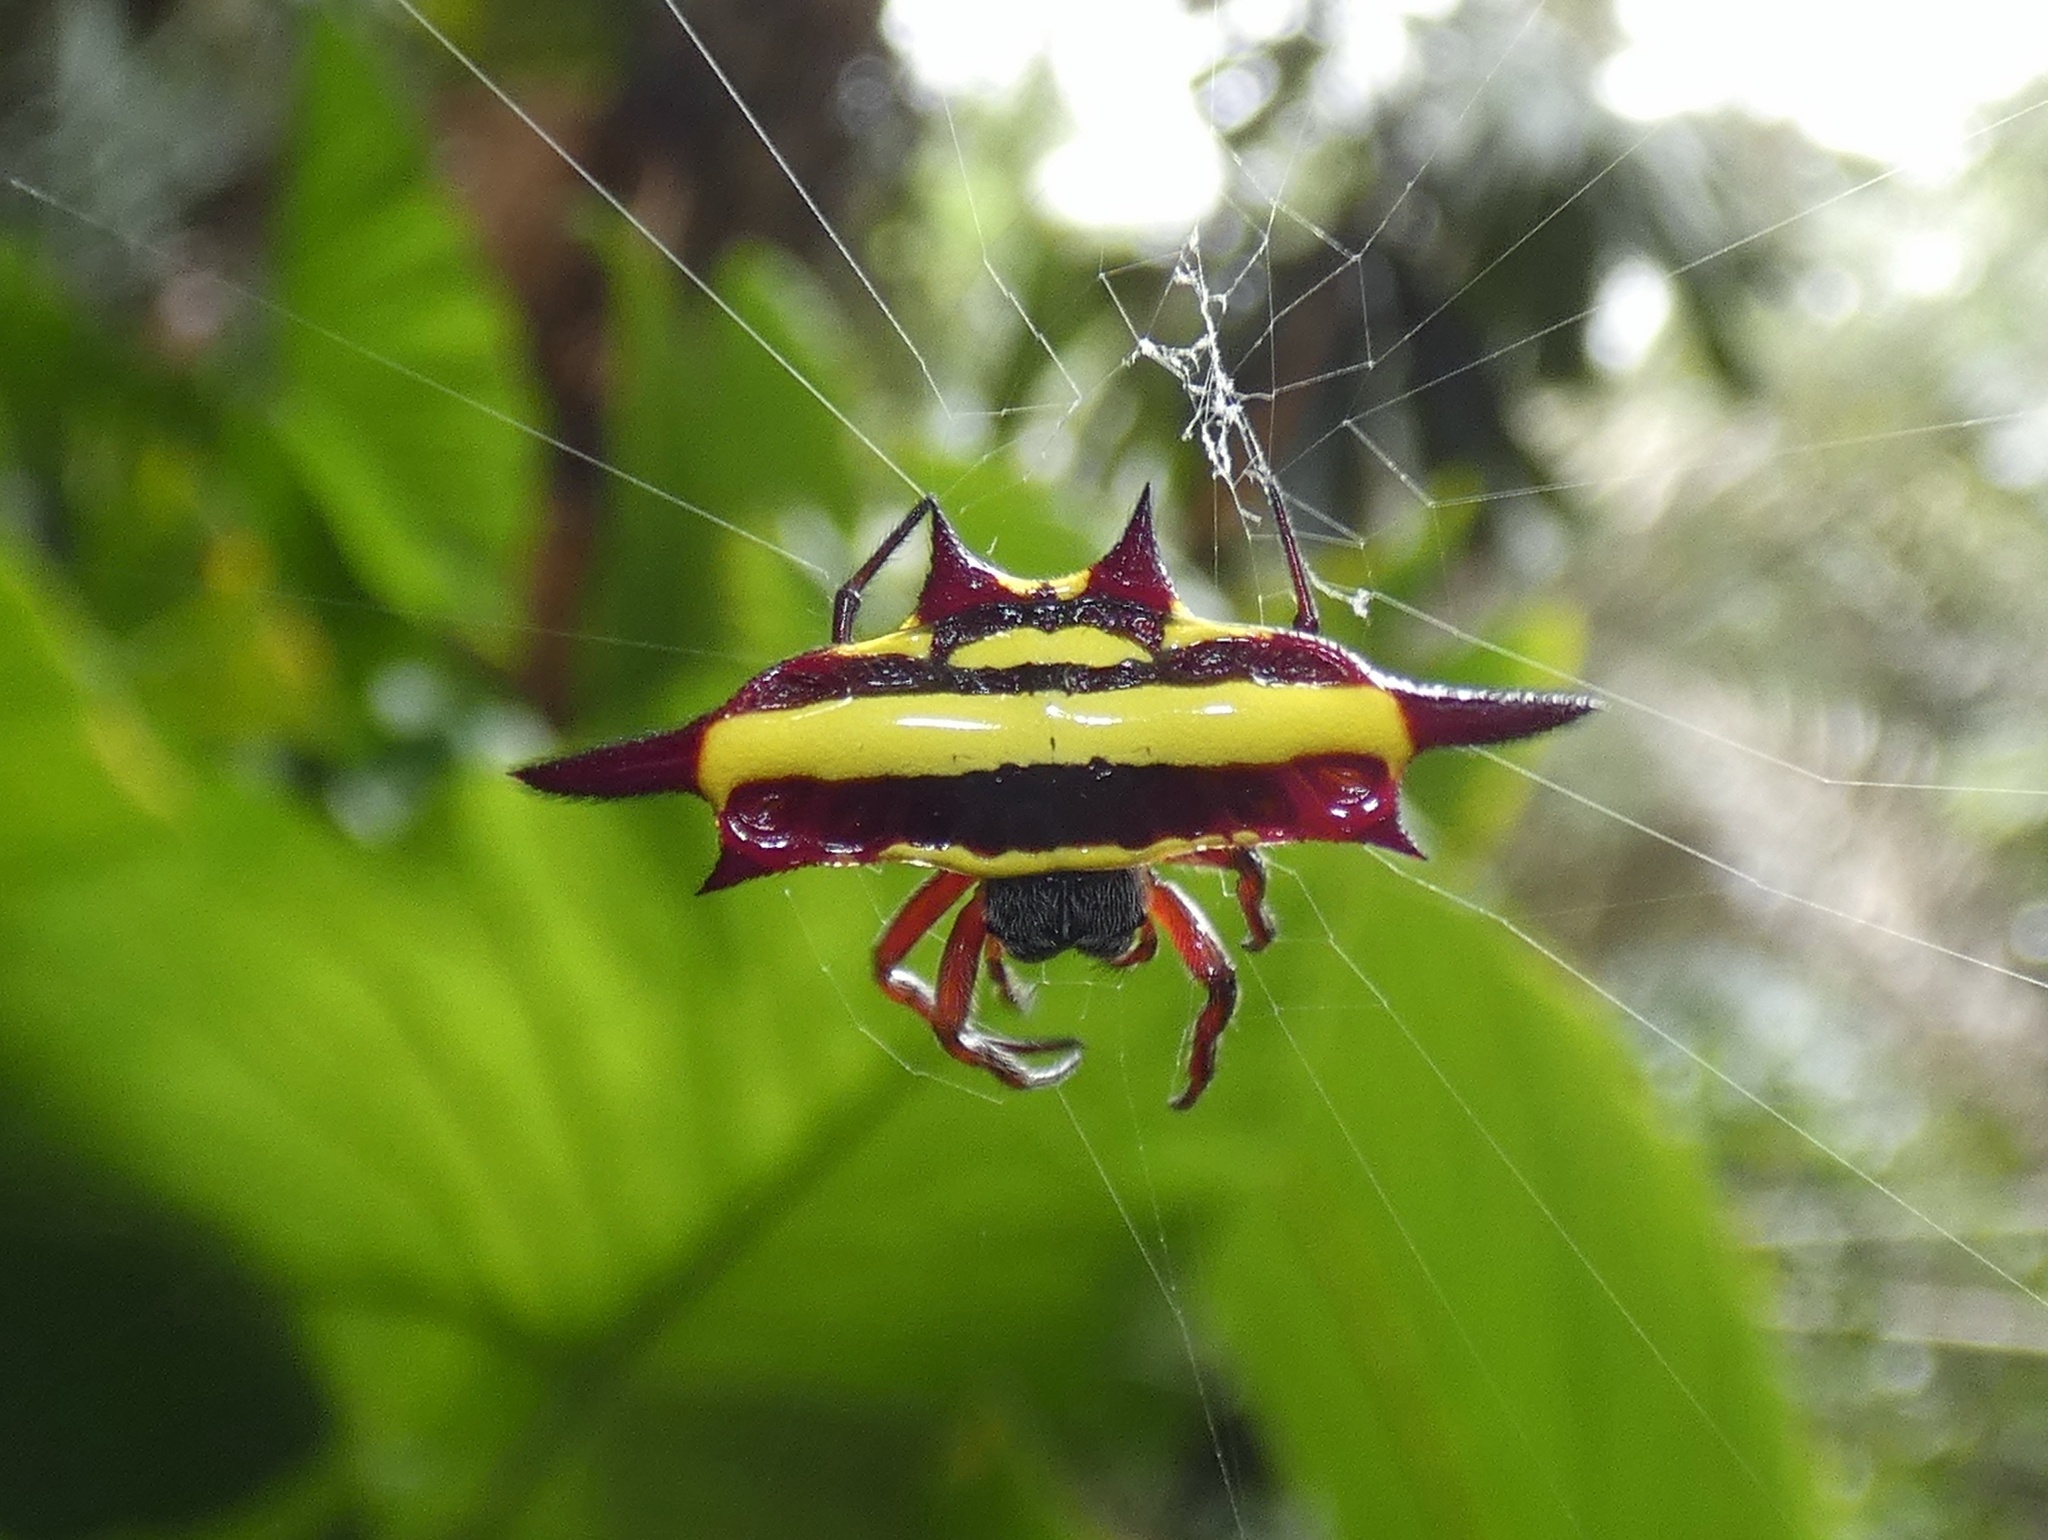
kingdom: Animalia
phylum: Arthropoda
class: Arachnida
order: Araneae
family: Araneidae
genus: Gasteracantha
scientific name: Gasteracantha fornicata
